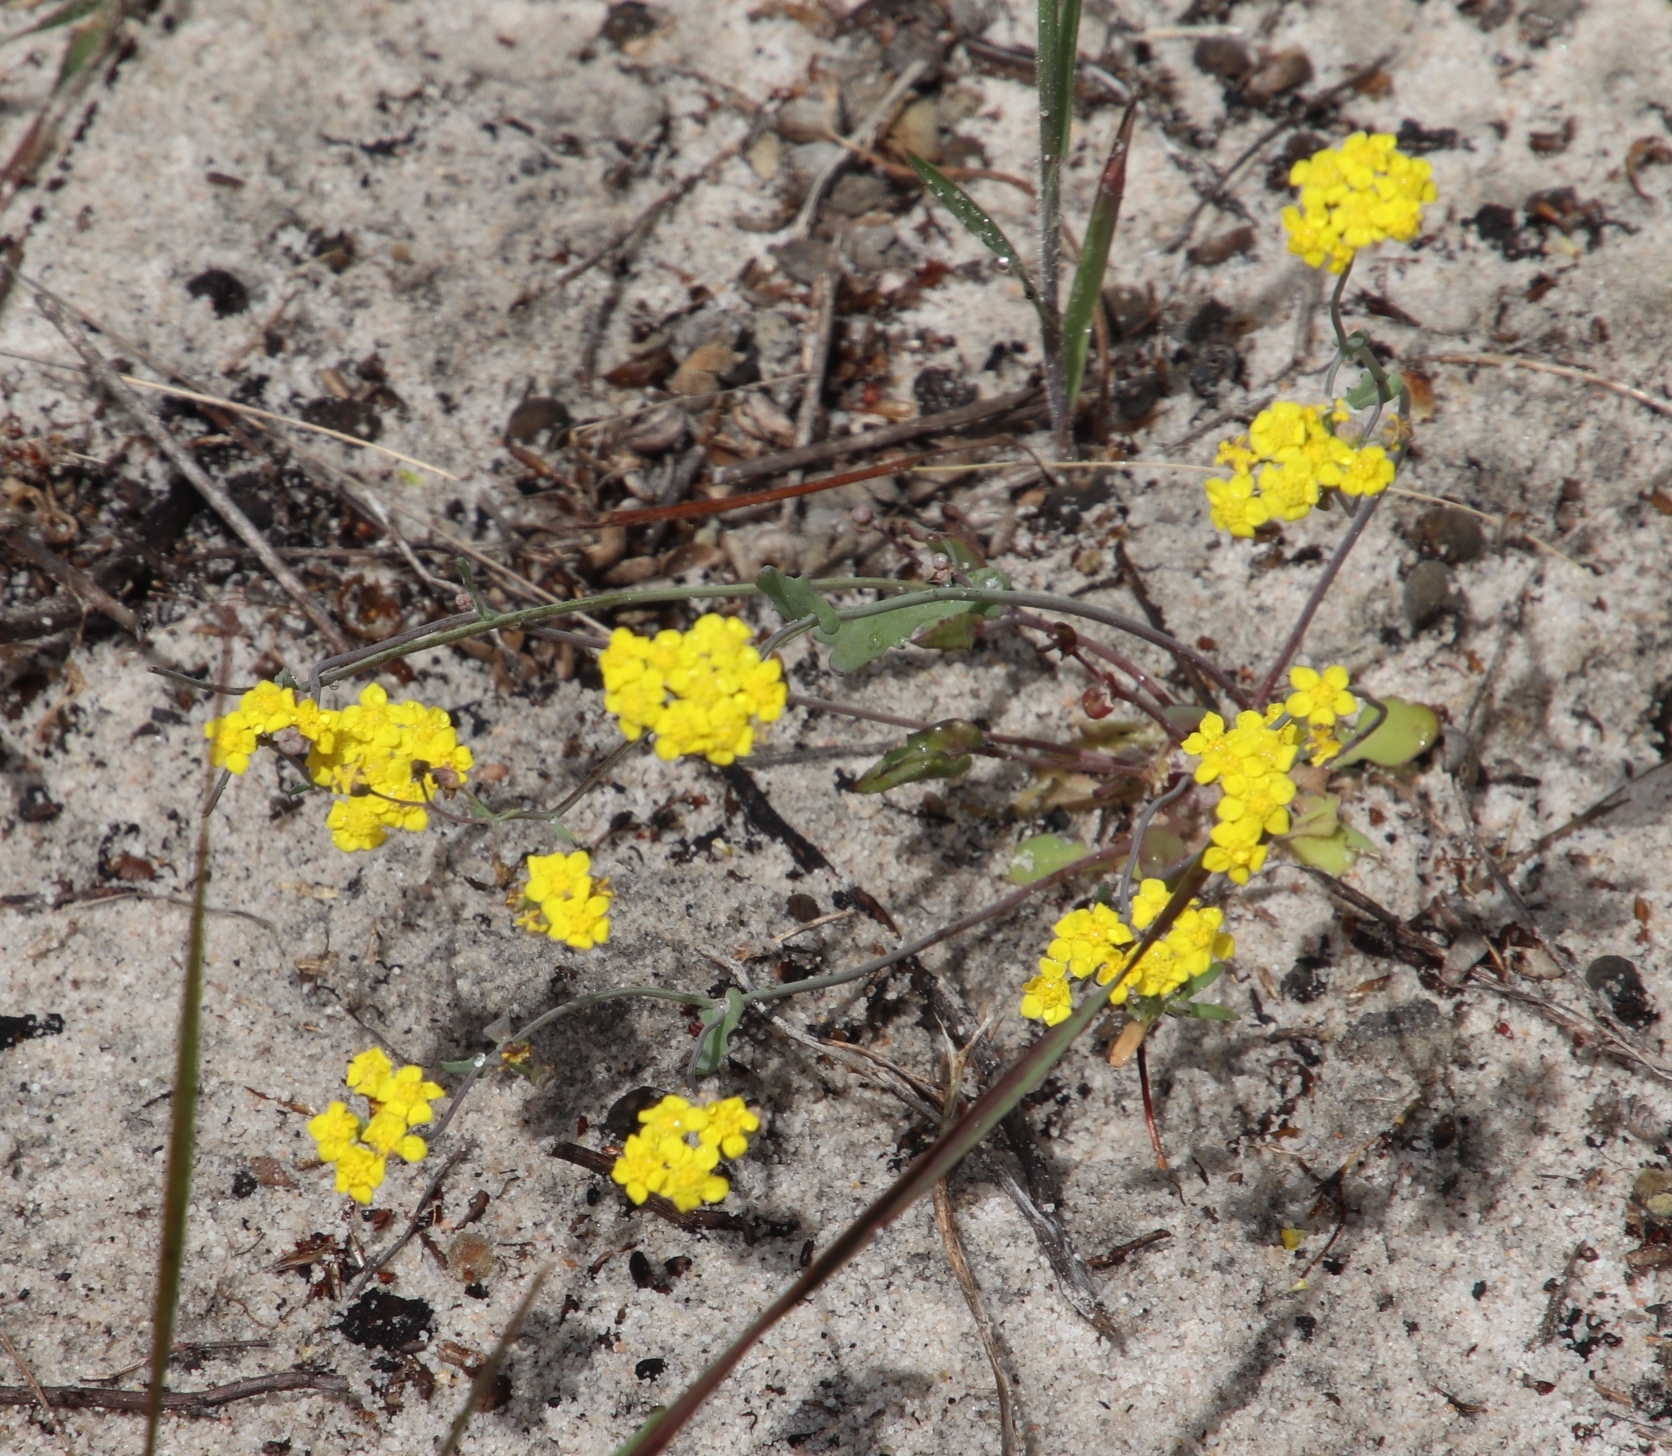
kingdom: Plantae
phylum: Tracheophyta
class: Magnoliopsida
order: Asterales
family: Asteraceae
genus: Gymnodiscus
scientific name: Gymnodiscus capillaris
